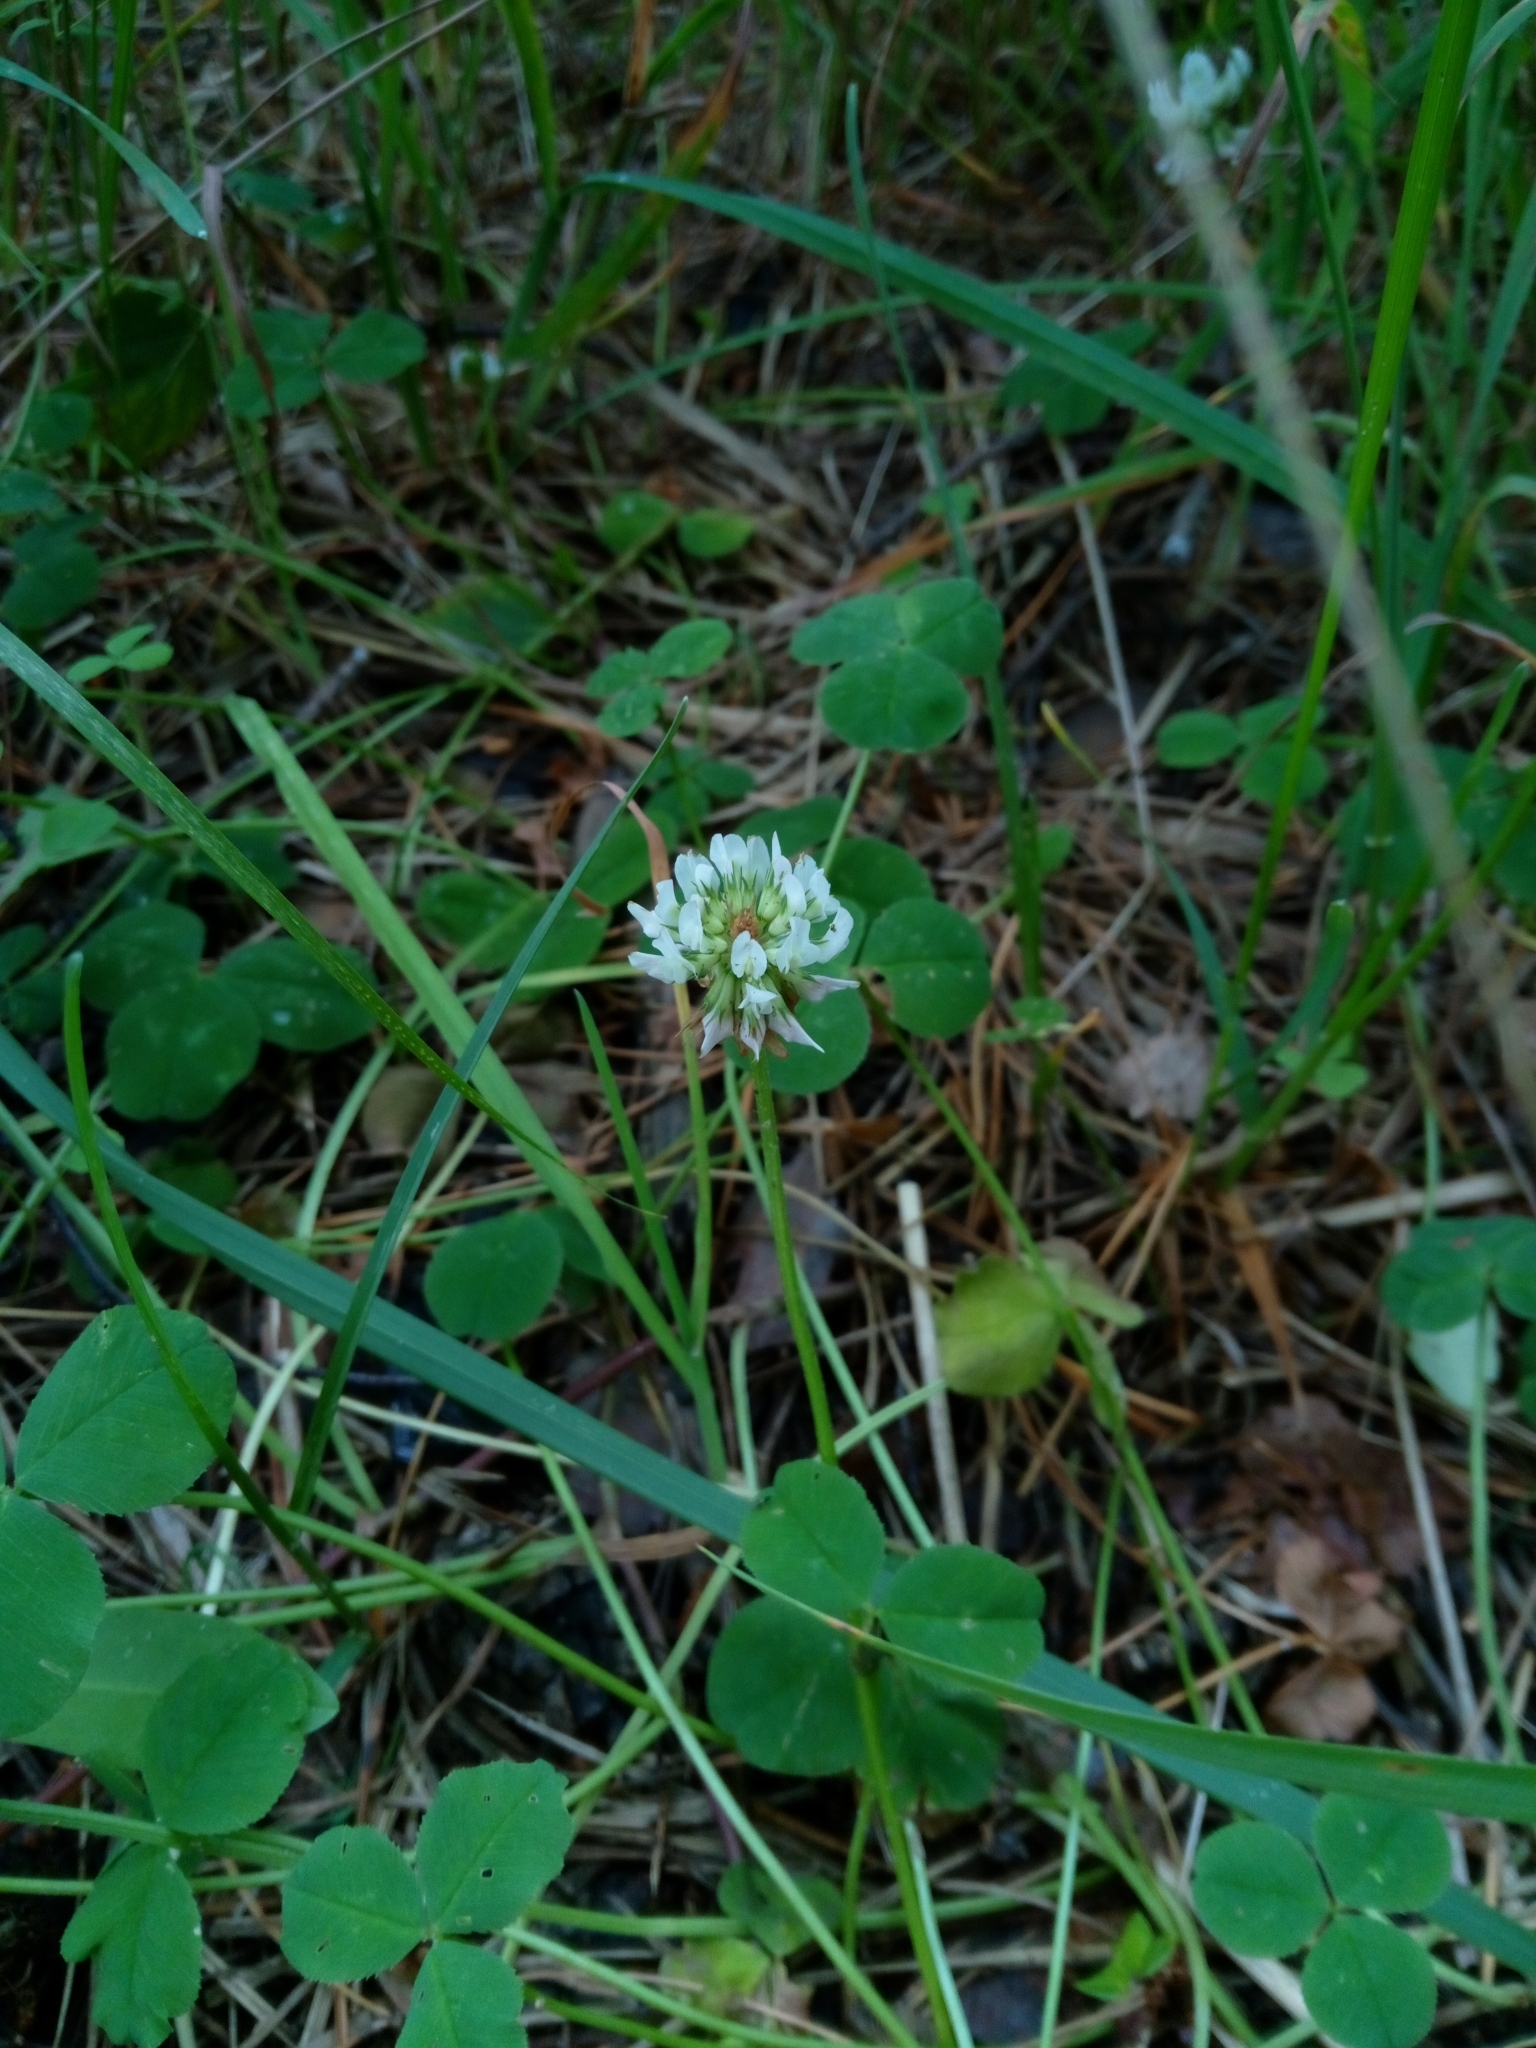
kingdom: Plantae
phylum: Tracheophyta
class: Magnoliopsida
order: Fabales
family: Fabaceae
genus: Trifolium
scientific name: Trifolium repens
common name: White clover
